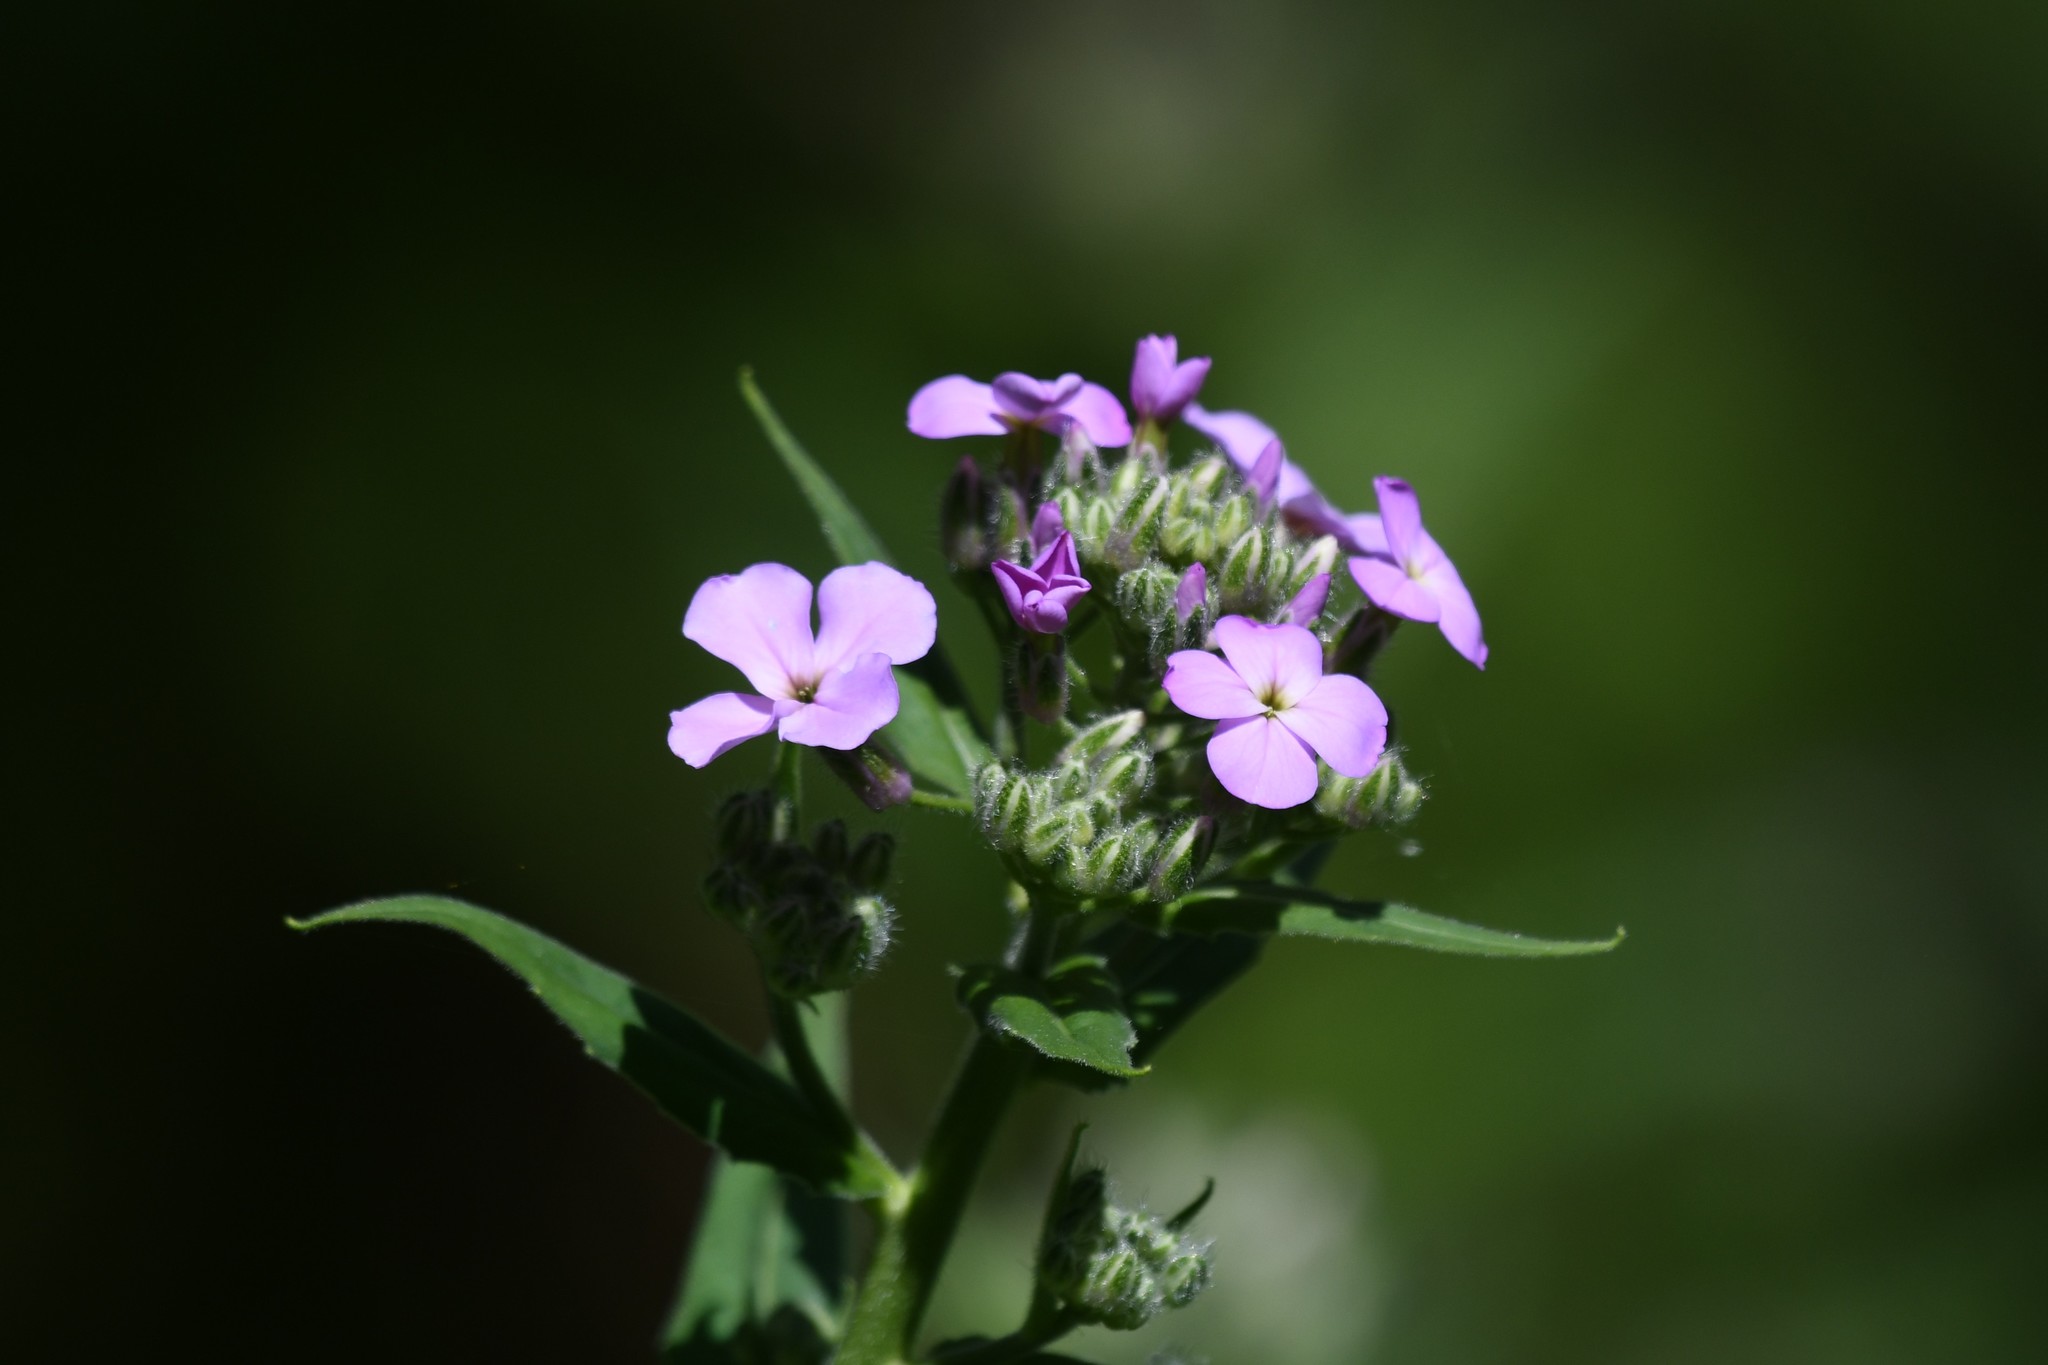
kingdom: Plantae
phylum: Tracheophyta
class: Magnoliopsida
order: Brassicales
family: Brassicaceae
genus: Hesperis
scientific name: Hesperis matronalis
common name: Dame's-violet
